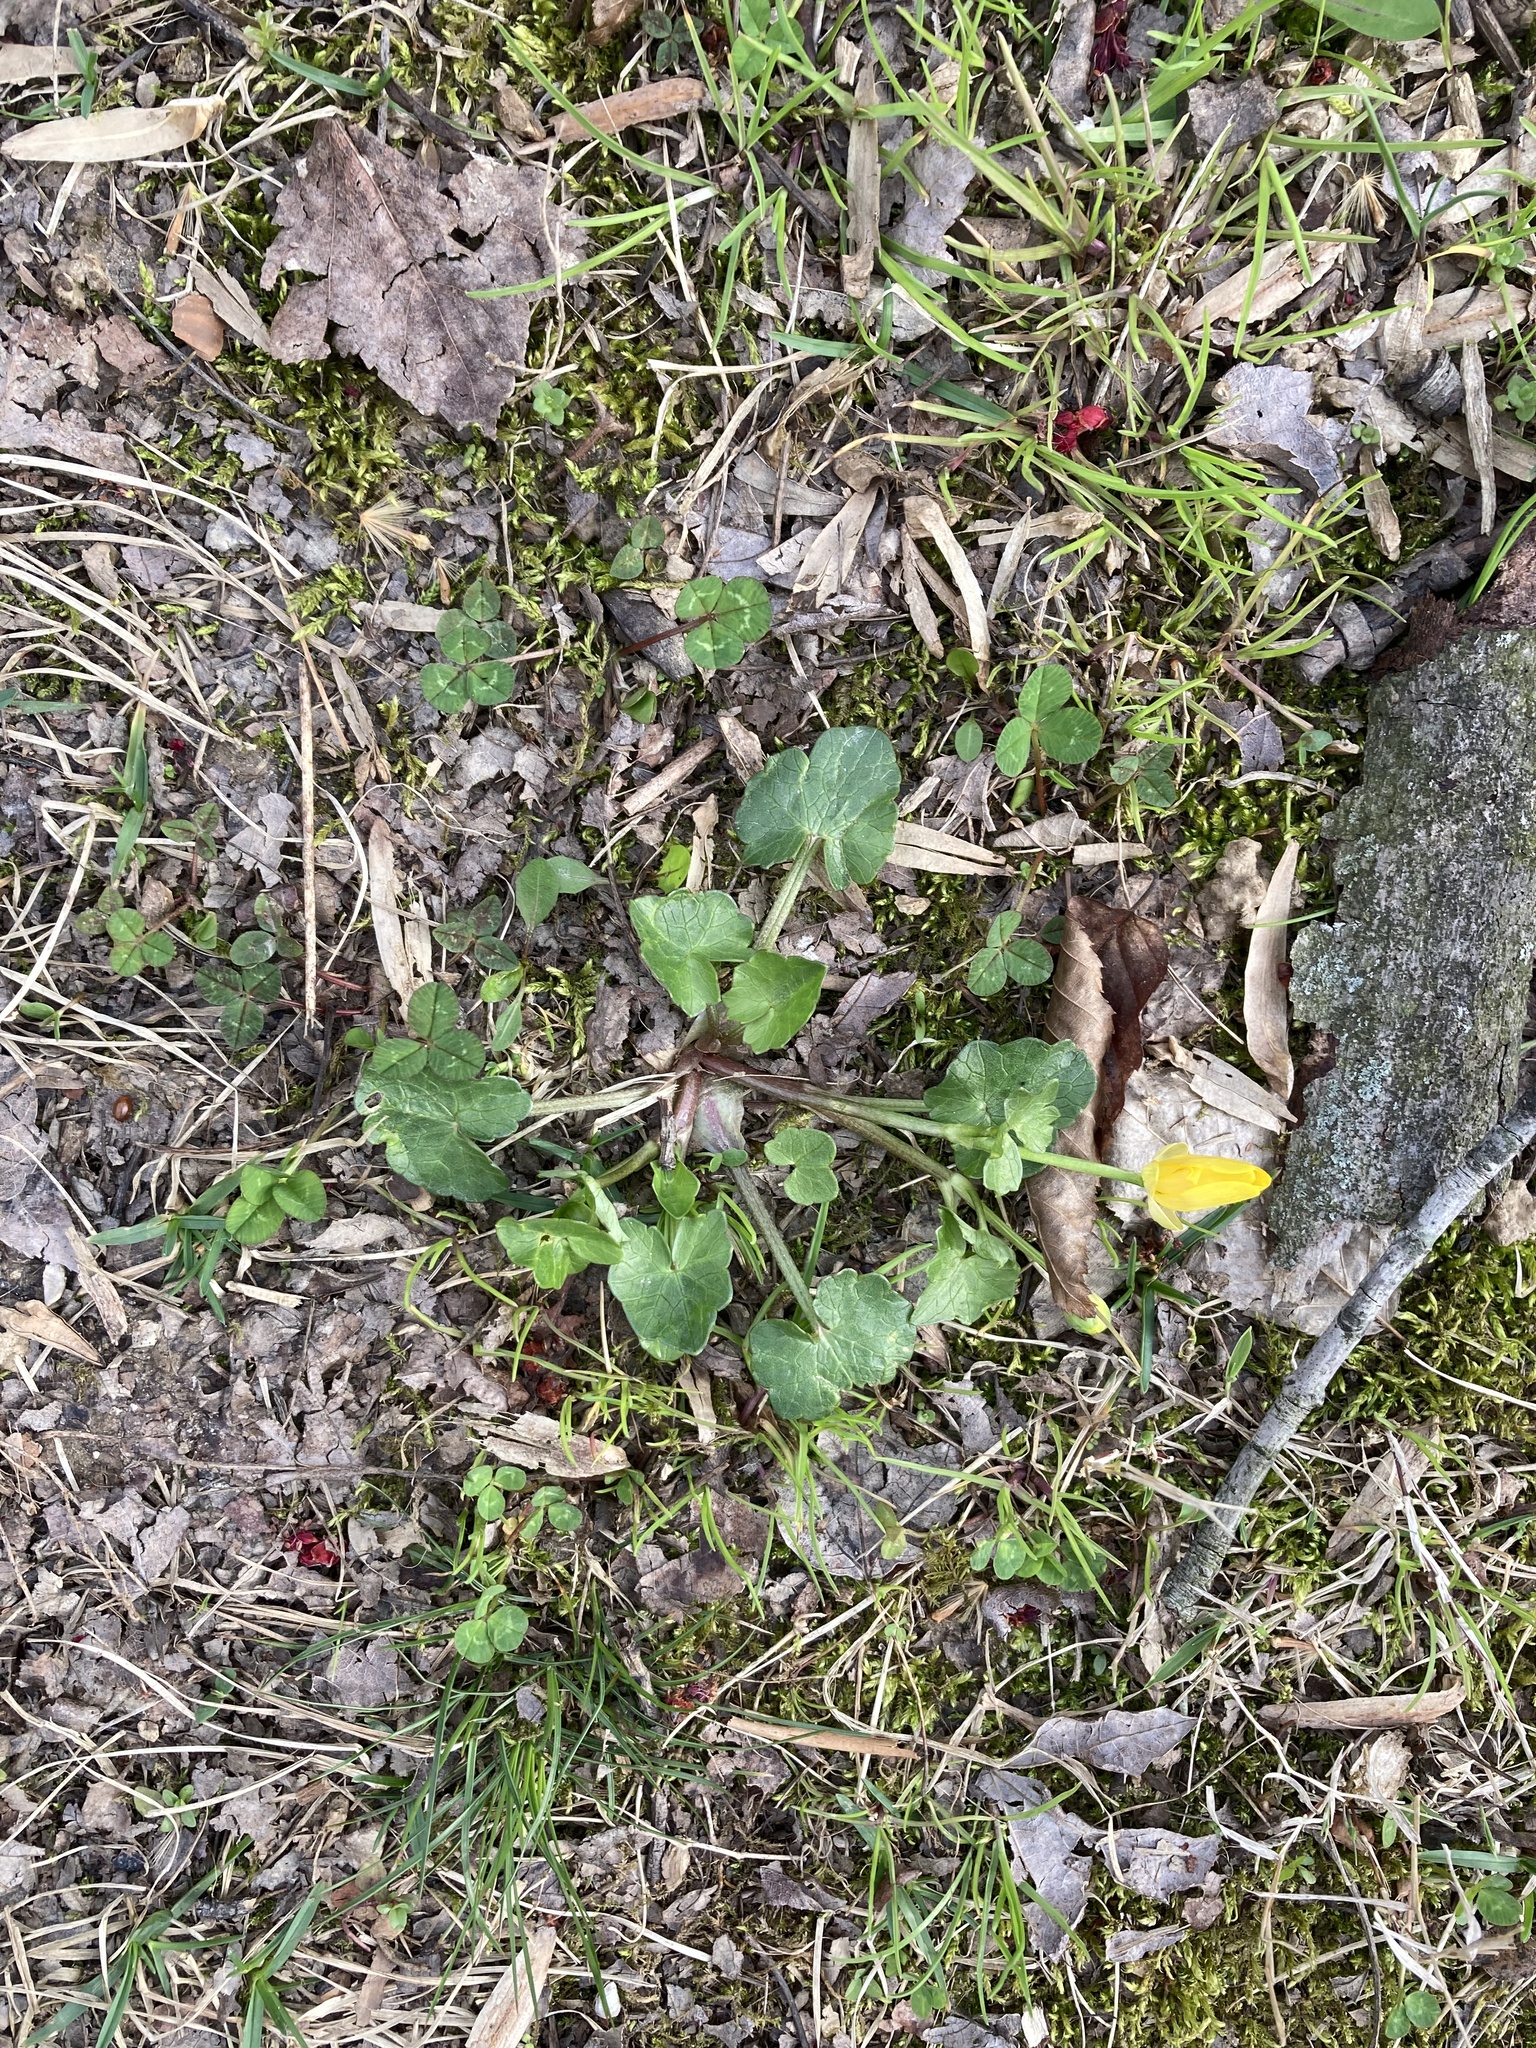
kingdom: Plantae
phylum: Tracheophyta
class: Magnoliopsida
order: Ranunculales
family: Ranunculaceae
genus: Ficaria
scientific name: Ficaria verna
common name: Lesser celandine
